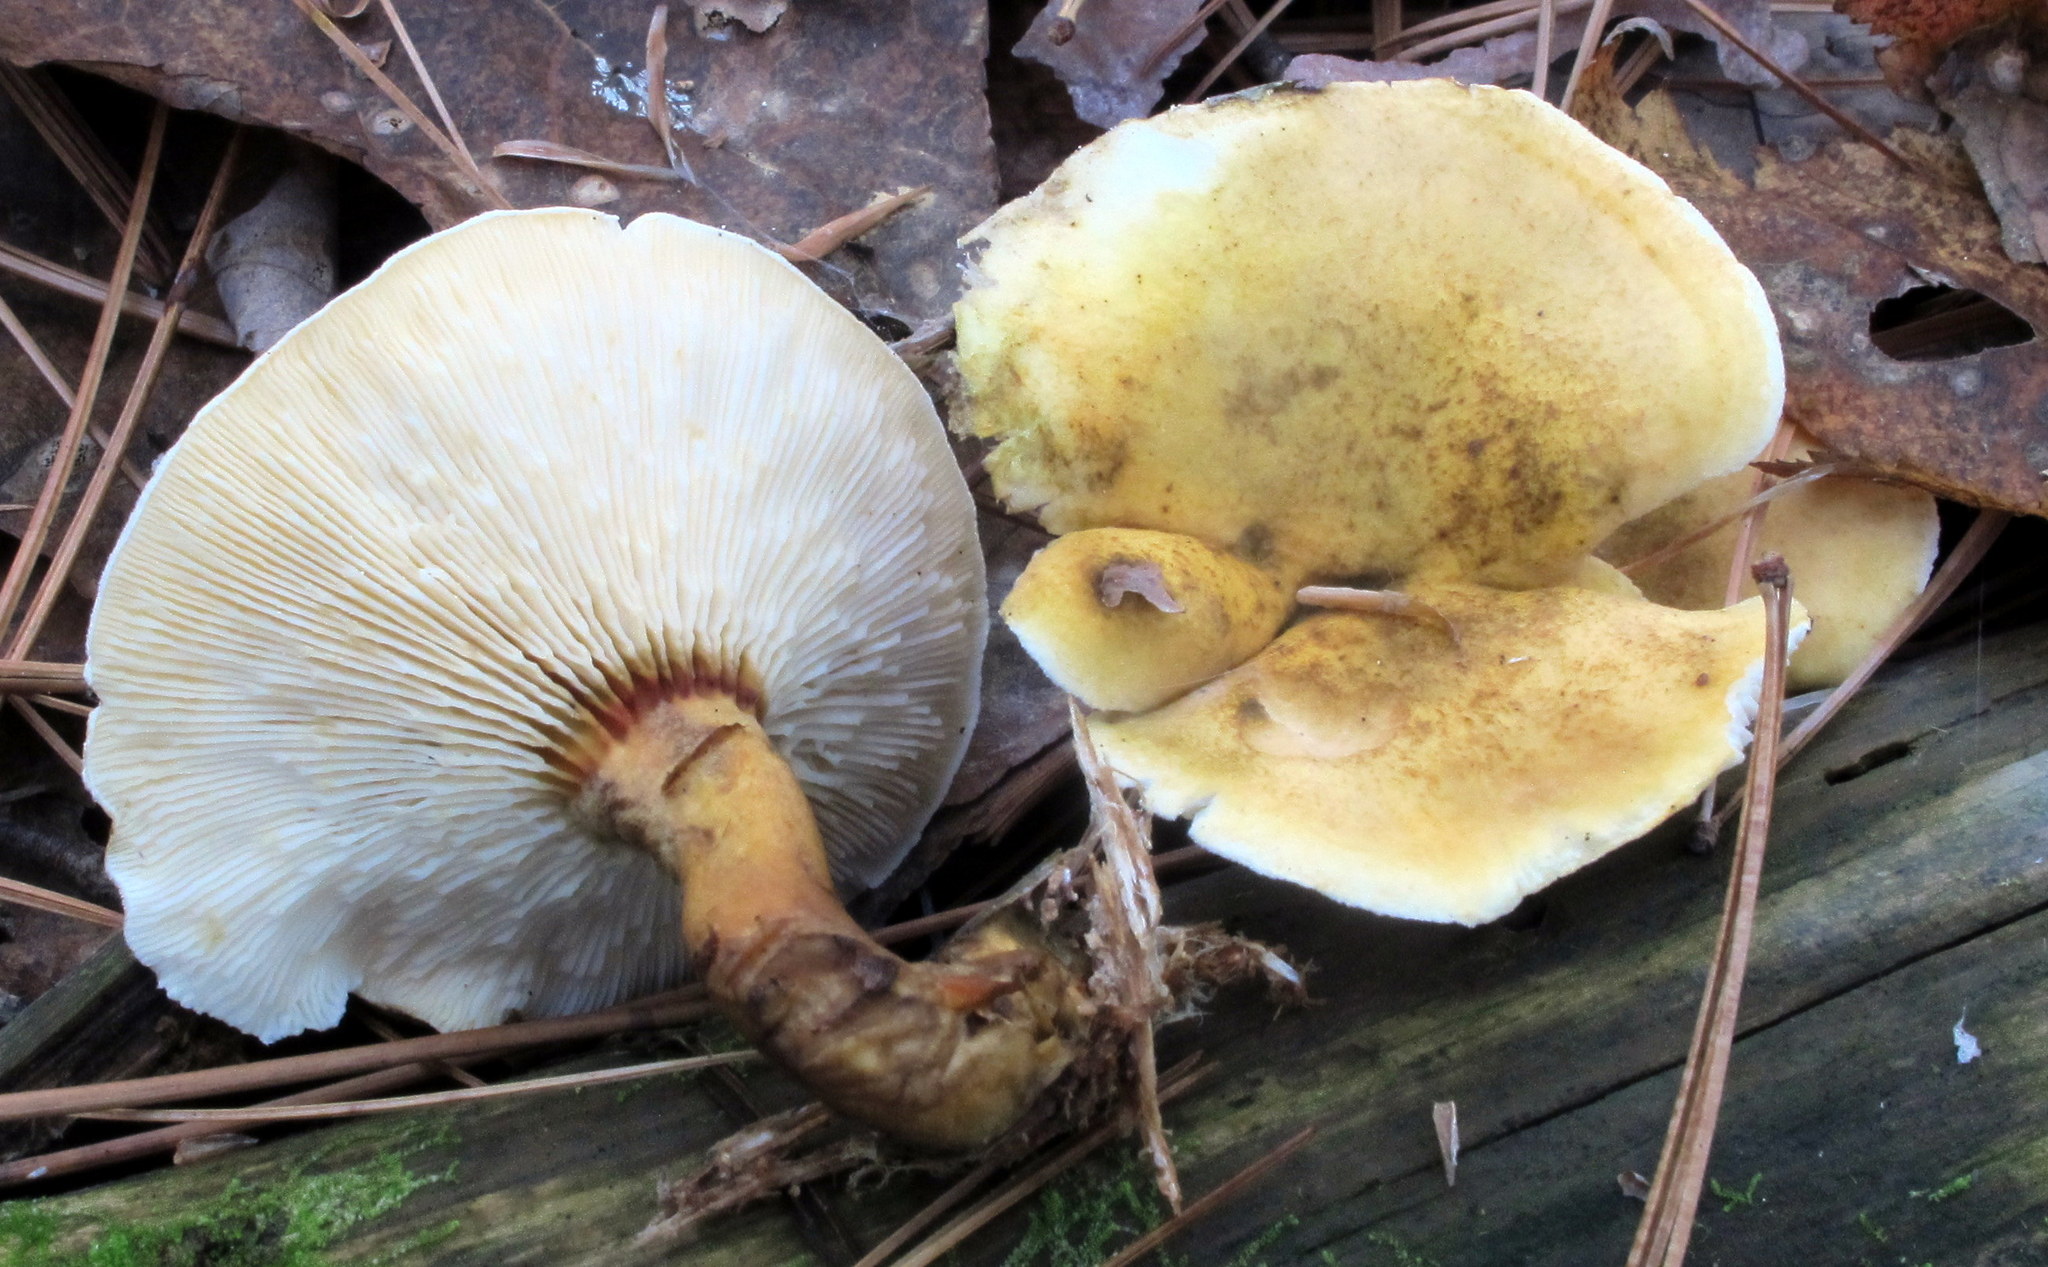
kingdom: Fungi
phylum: Basidiomycota
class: Agaricomycetes
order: Boletales
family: Hygrophoropsidaceae
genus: Hygrophoropsis
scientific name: Hygrophoropsis aurantiaca
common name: False chanterelle
